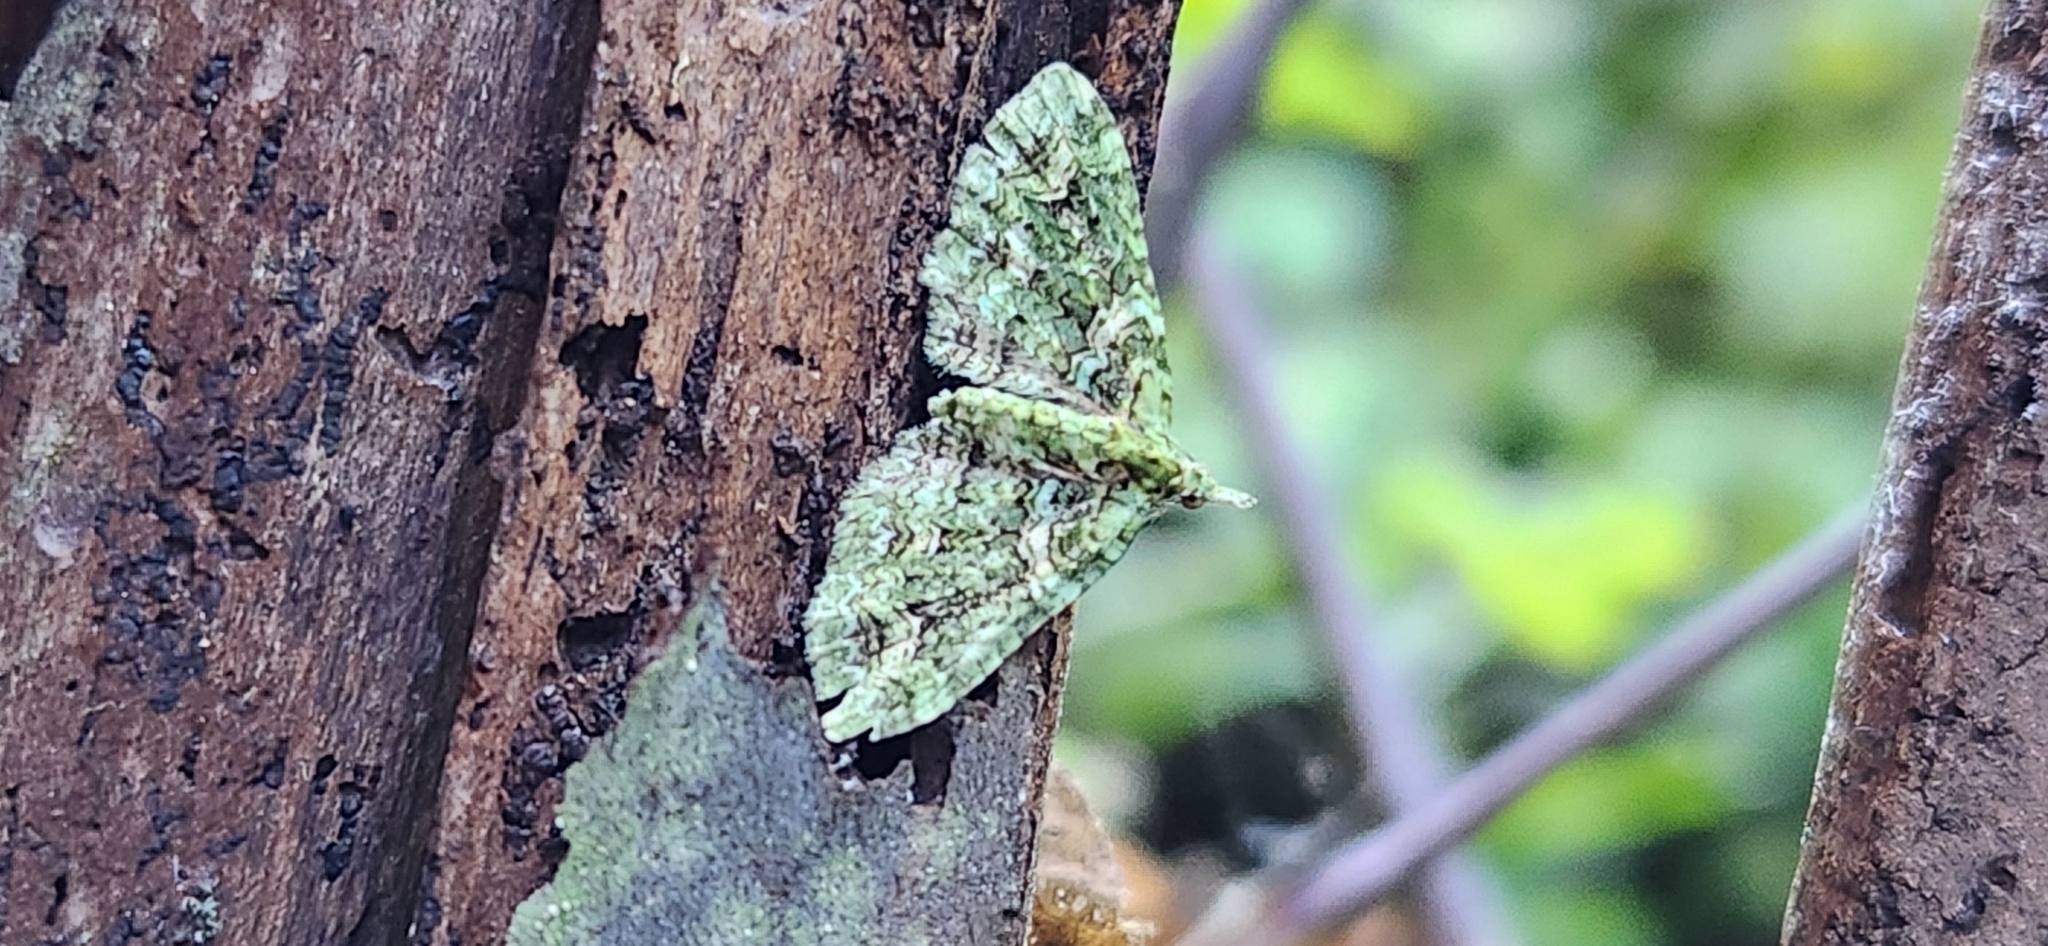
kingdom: Animalia
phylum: Arthropoda
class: Insecta
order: Lepidoptera
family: Geometridae
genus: Pasiphila
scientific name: Pasiphila muscosata
